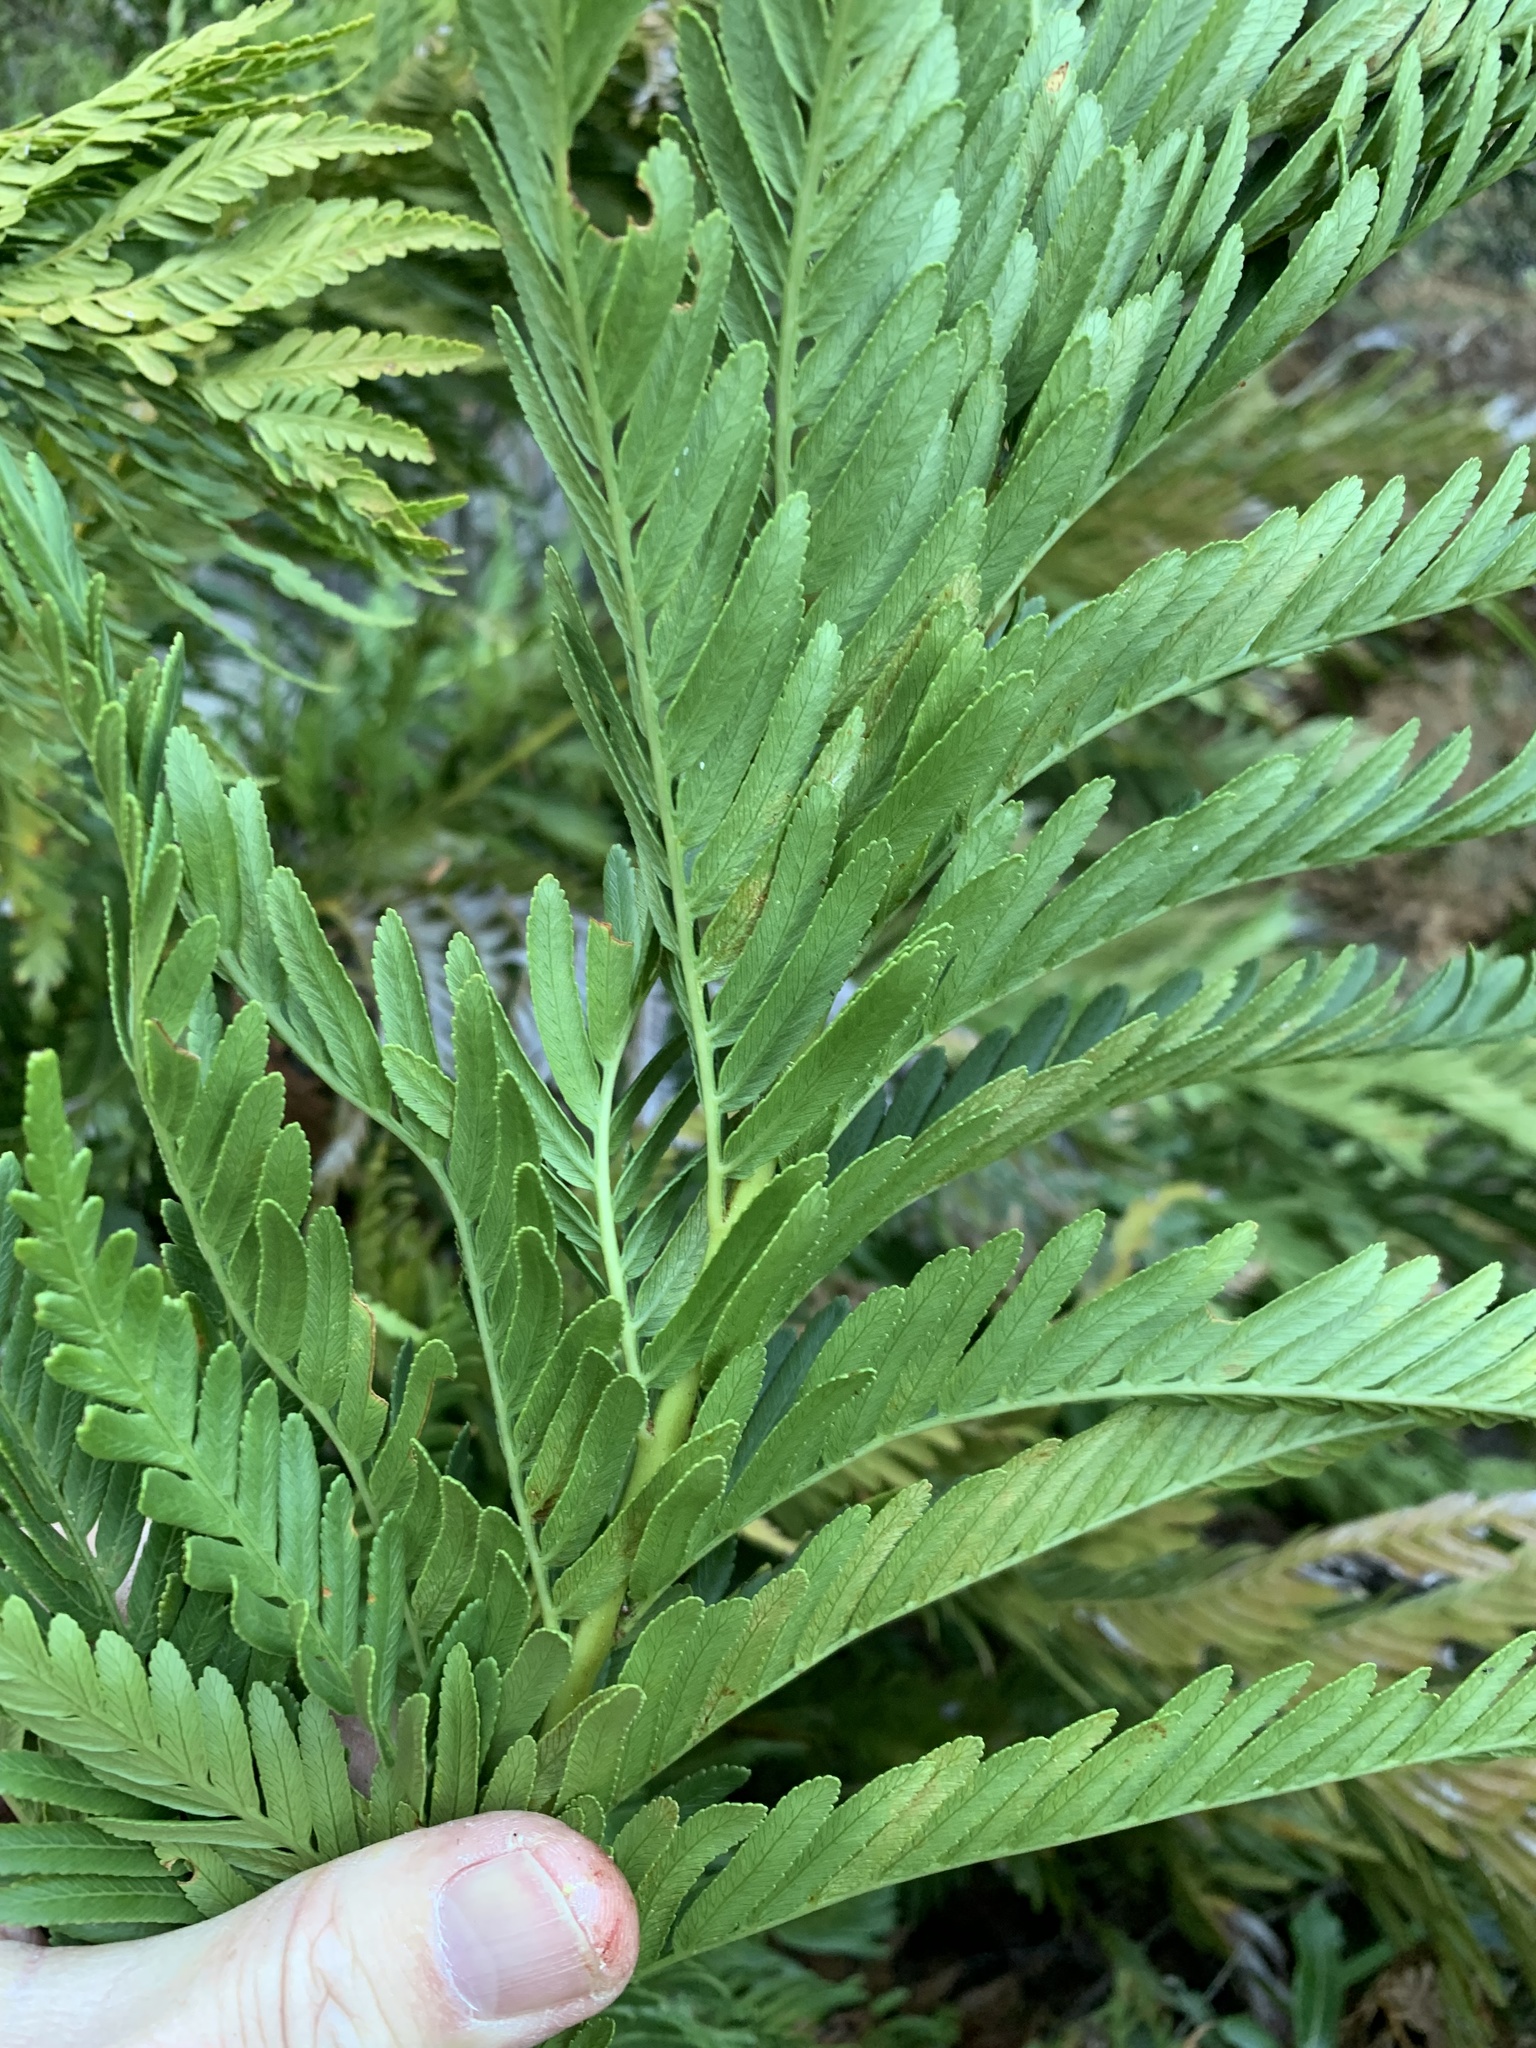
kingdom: Plantae
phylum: Tracheophyta
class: Polypodiopsida
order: Osmundales
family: Osmundaceae
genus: Todea
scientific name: Todea barbara
